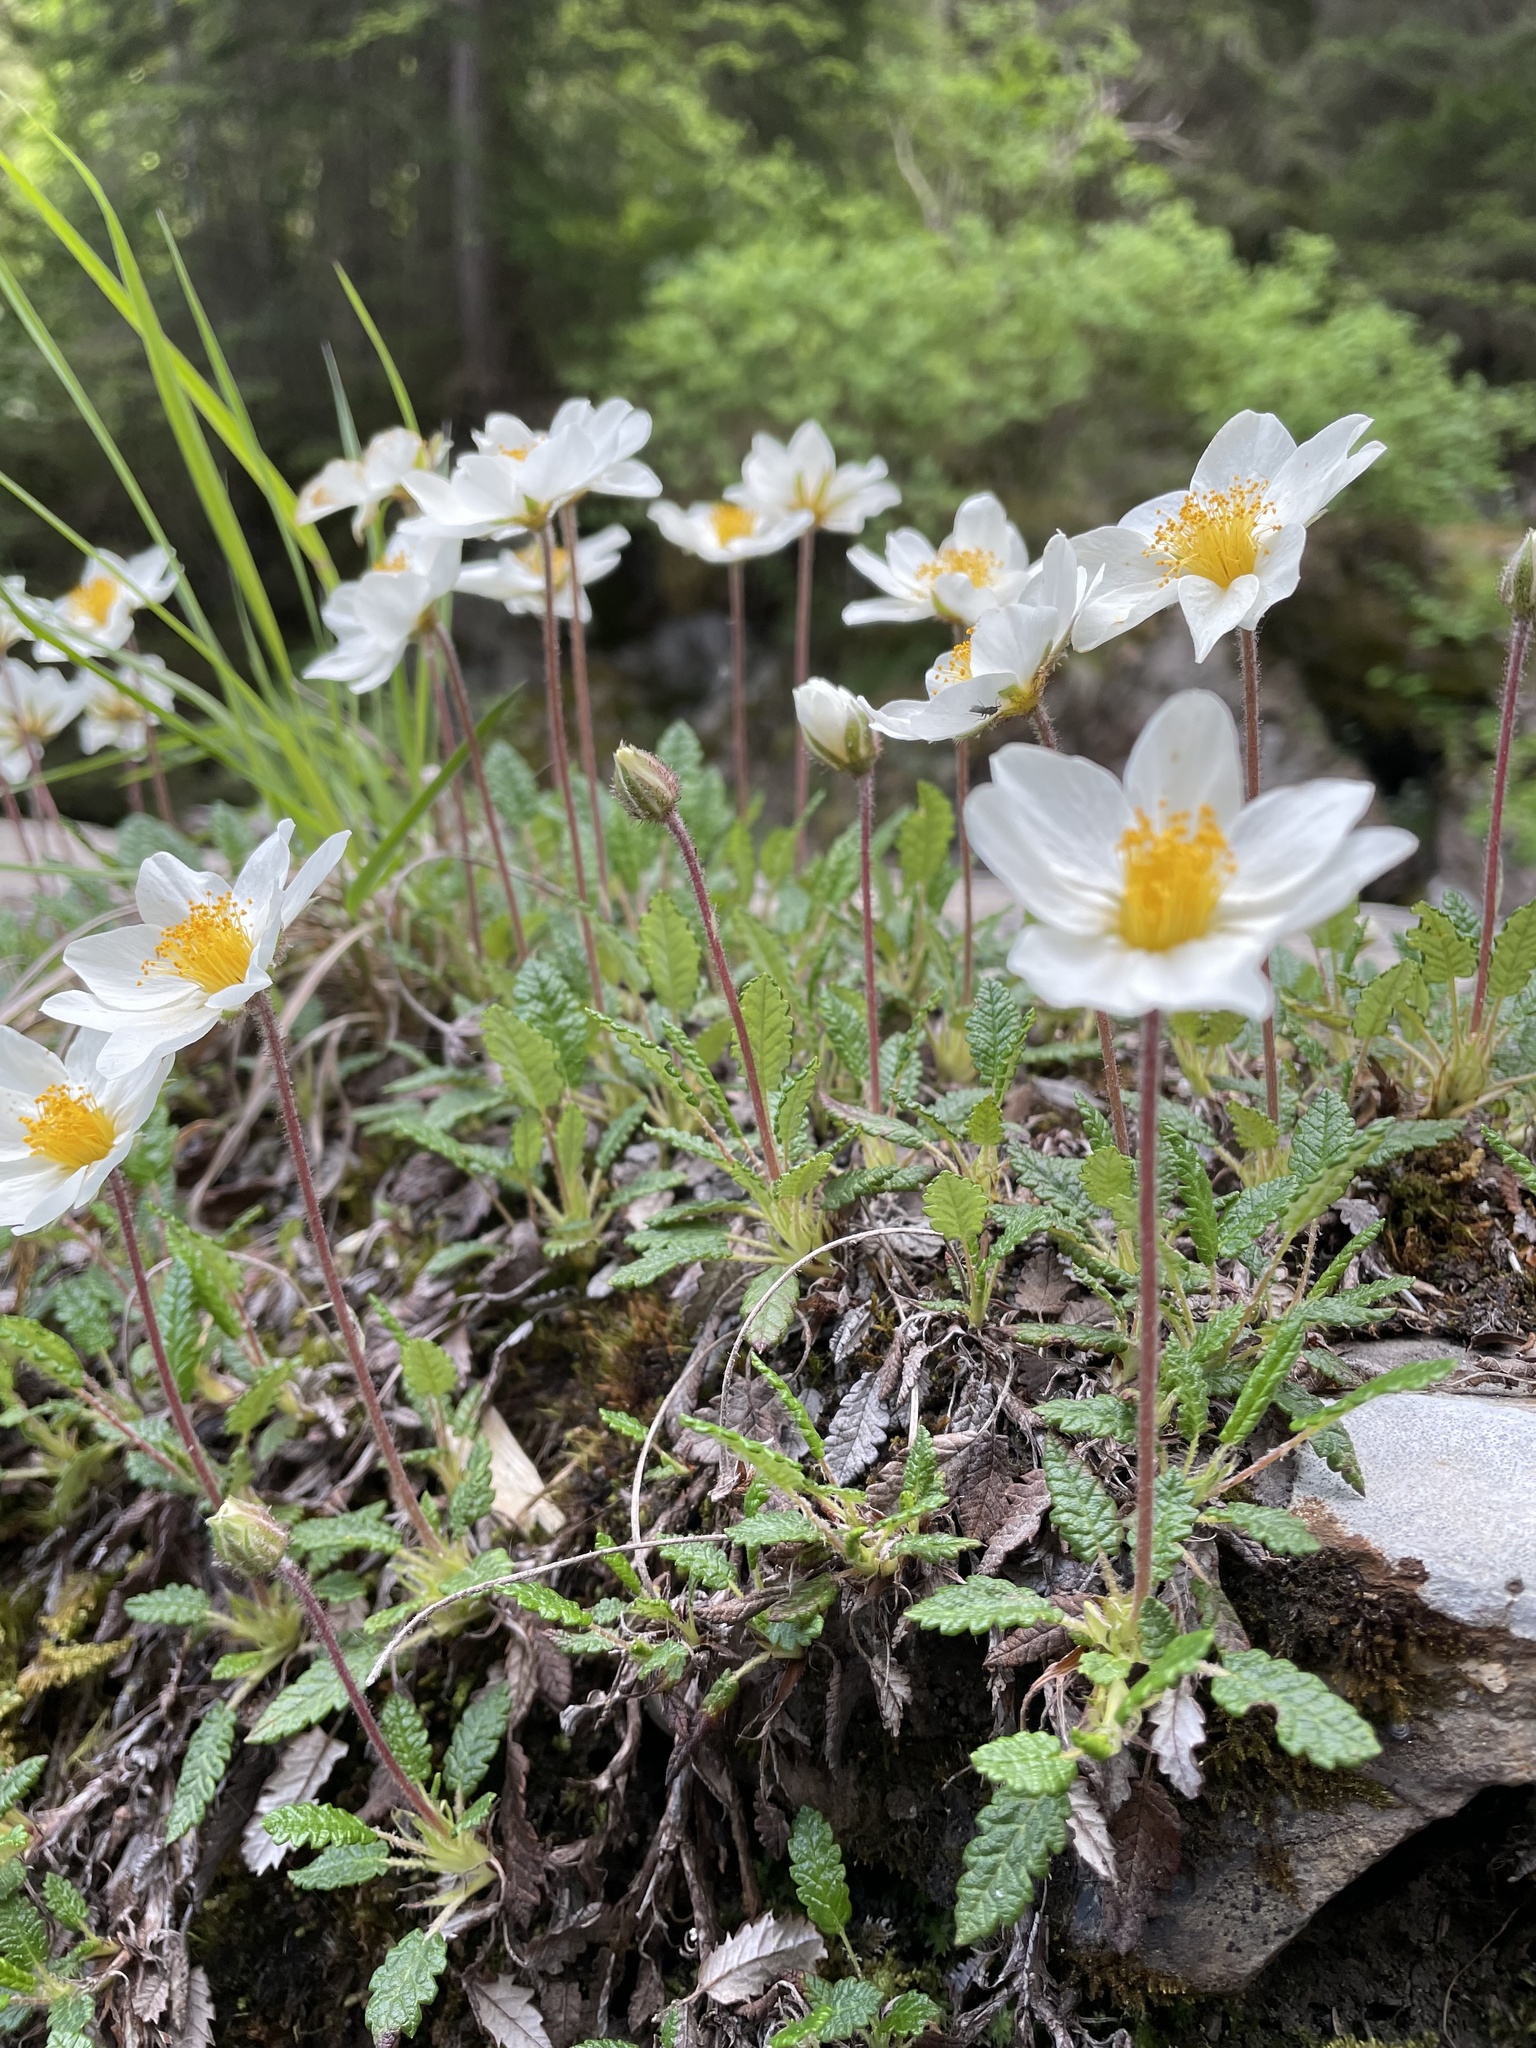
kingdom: Plantae
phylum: Tracheophyta
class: Magnoliopsida
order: Rosales
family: Rosaceae
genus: Dryas
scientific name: Dryas octopetala
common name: Eight-petal mountain-avens
